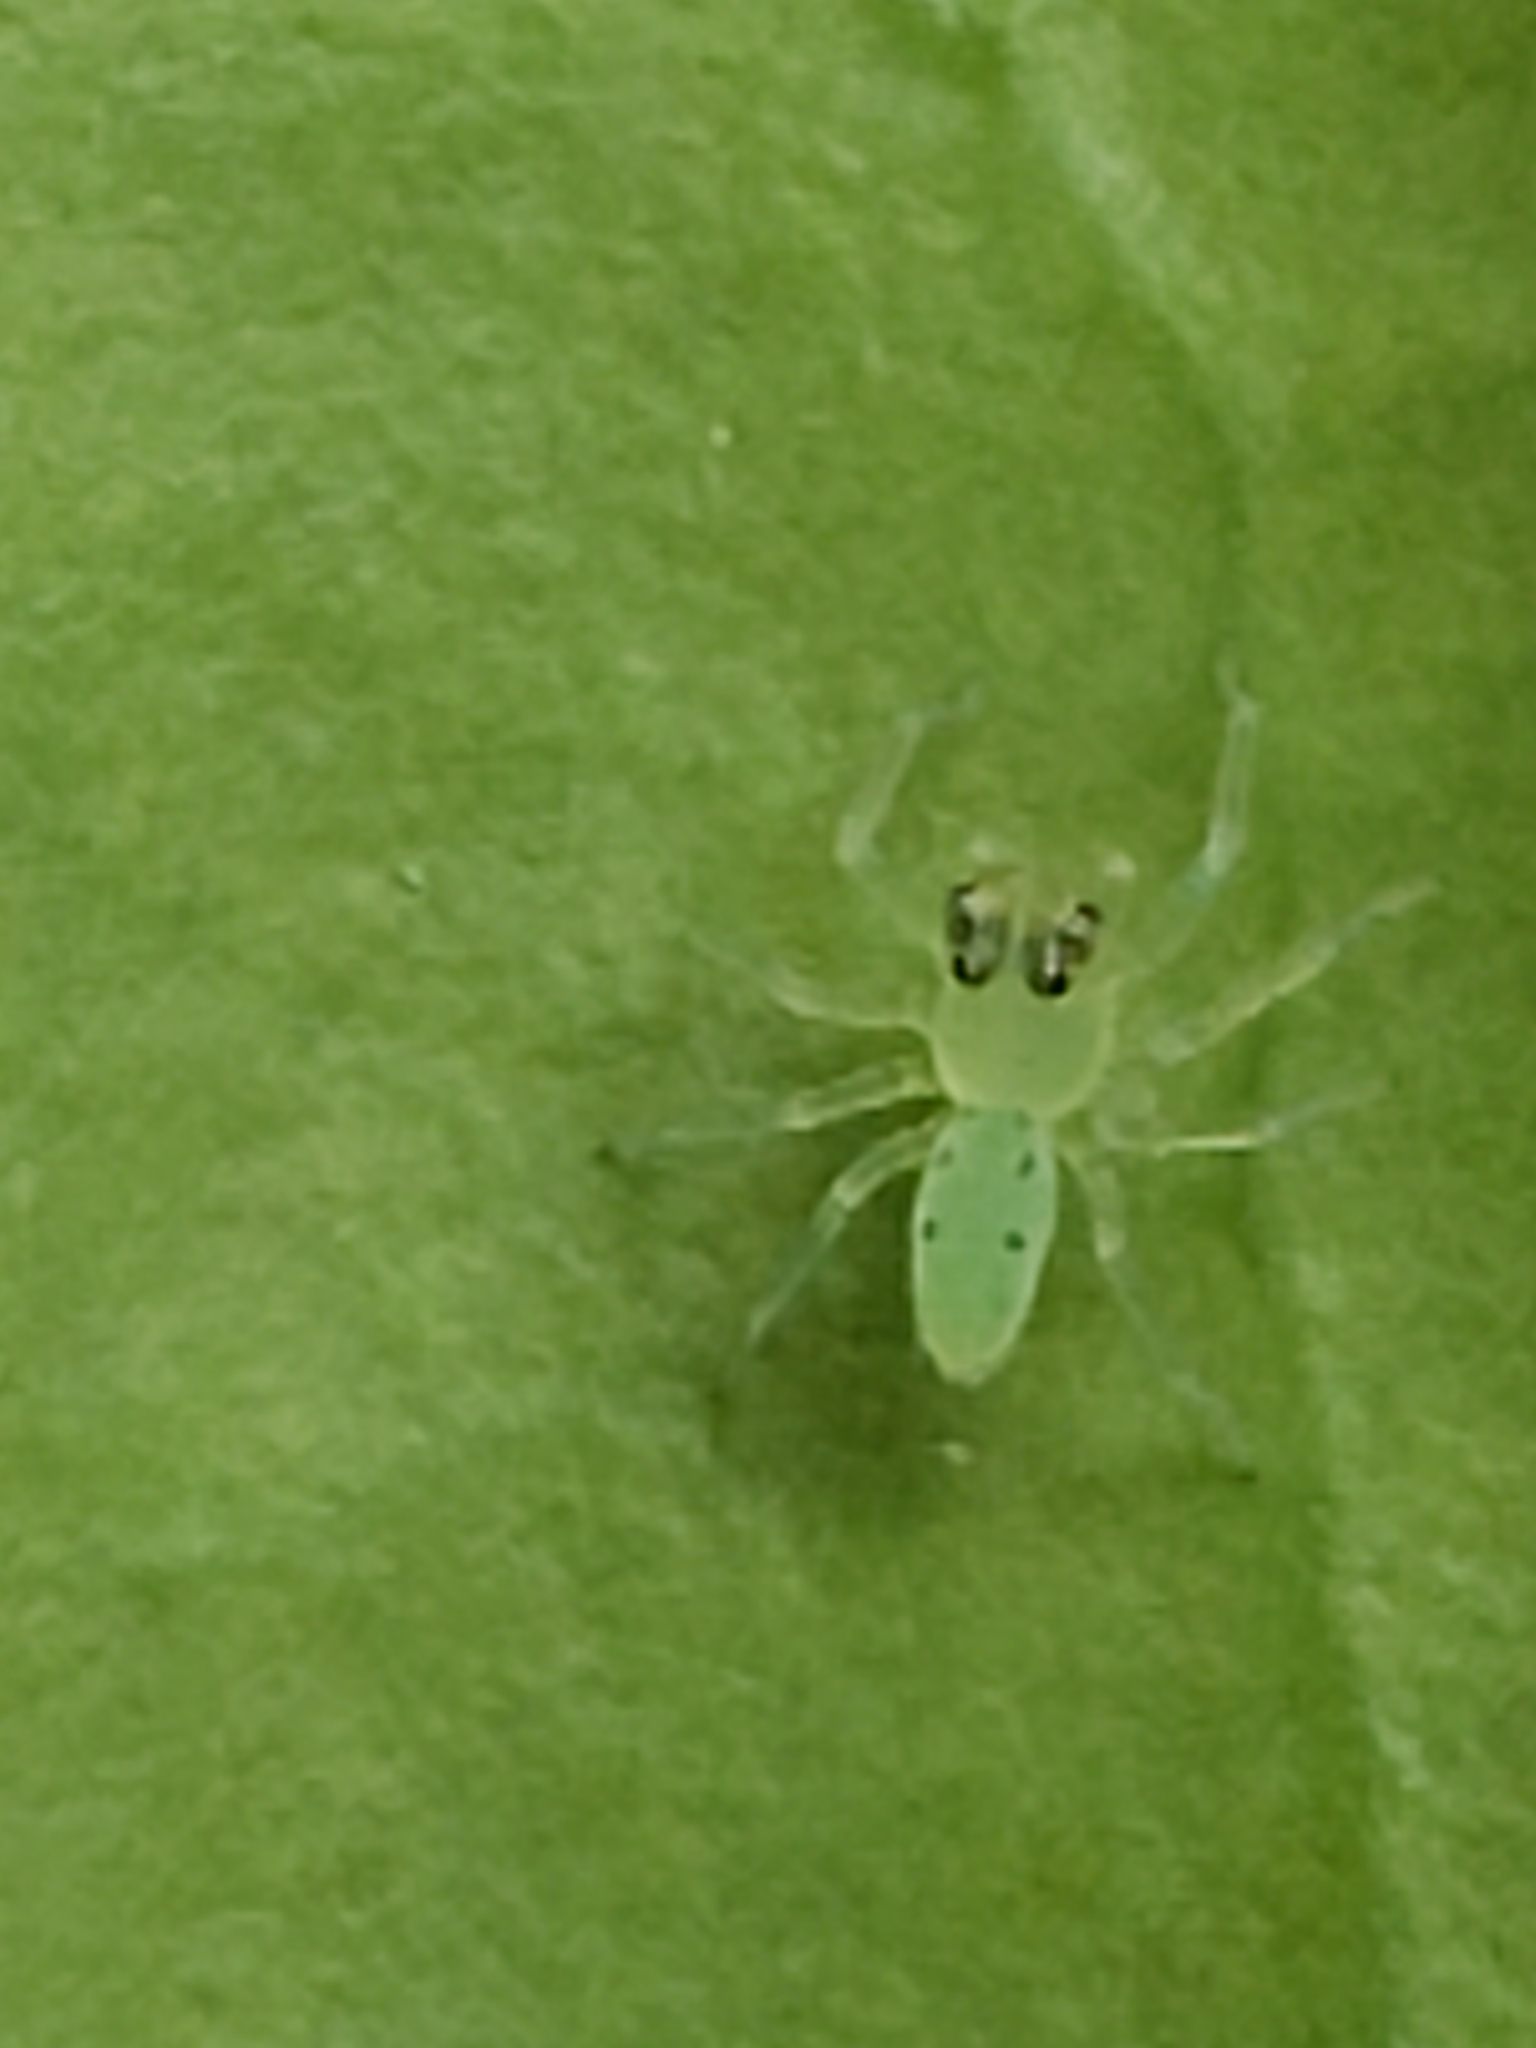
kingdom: Animalia
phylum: Arthropoda
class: Arachnida
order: Araneae
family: Salticidae
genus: Lyssomanes
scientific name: Lyssomanes viridis
